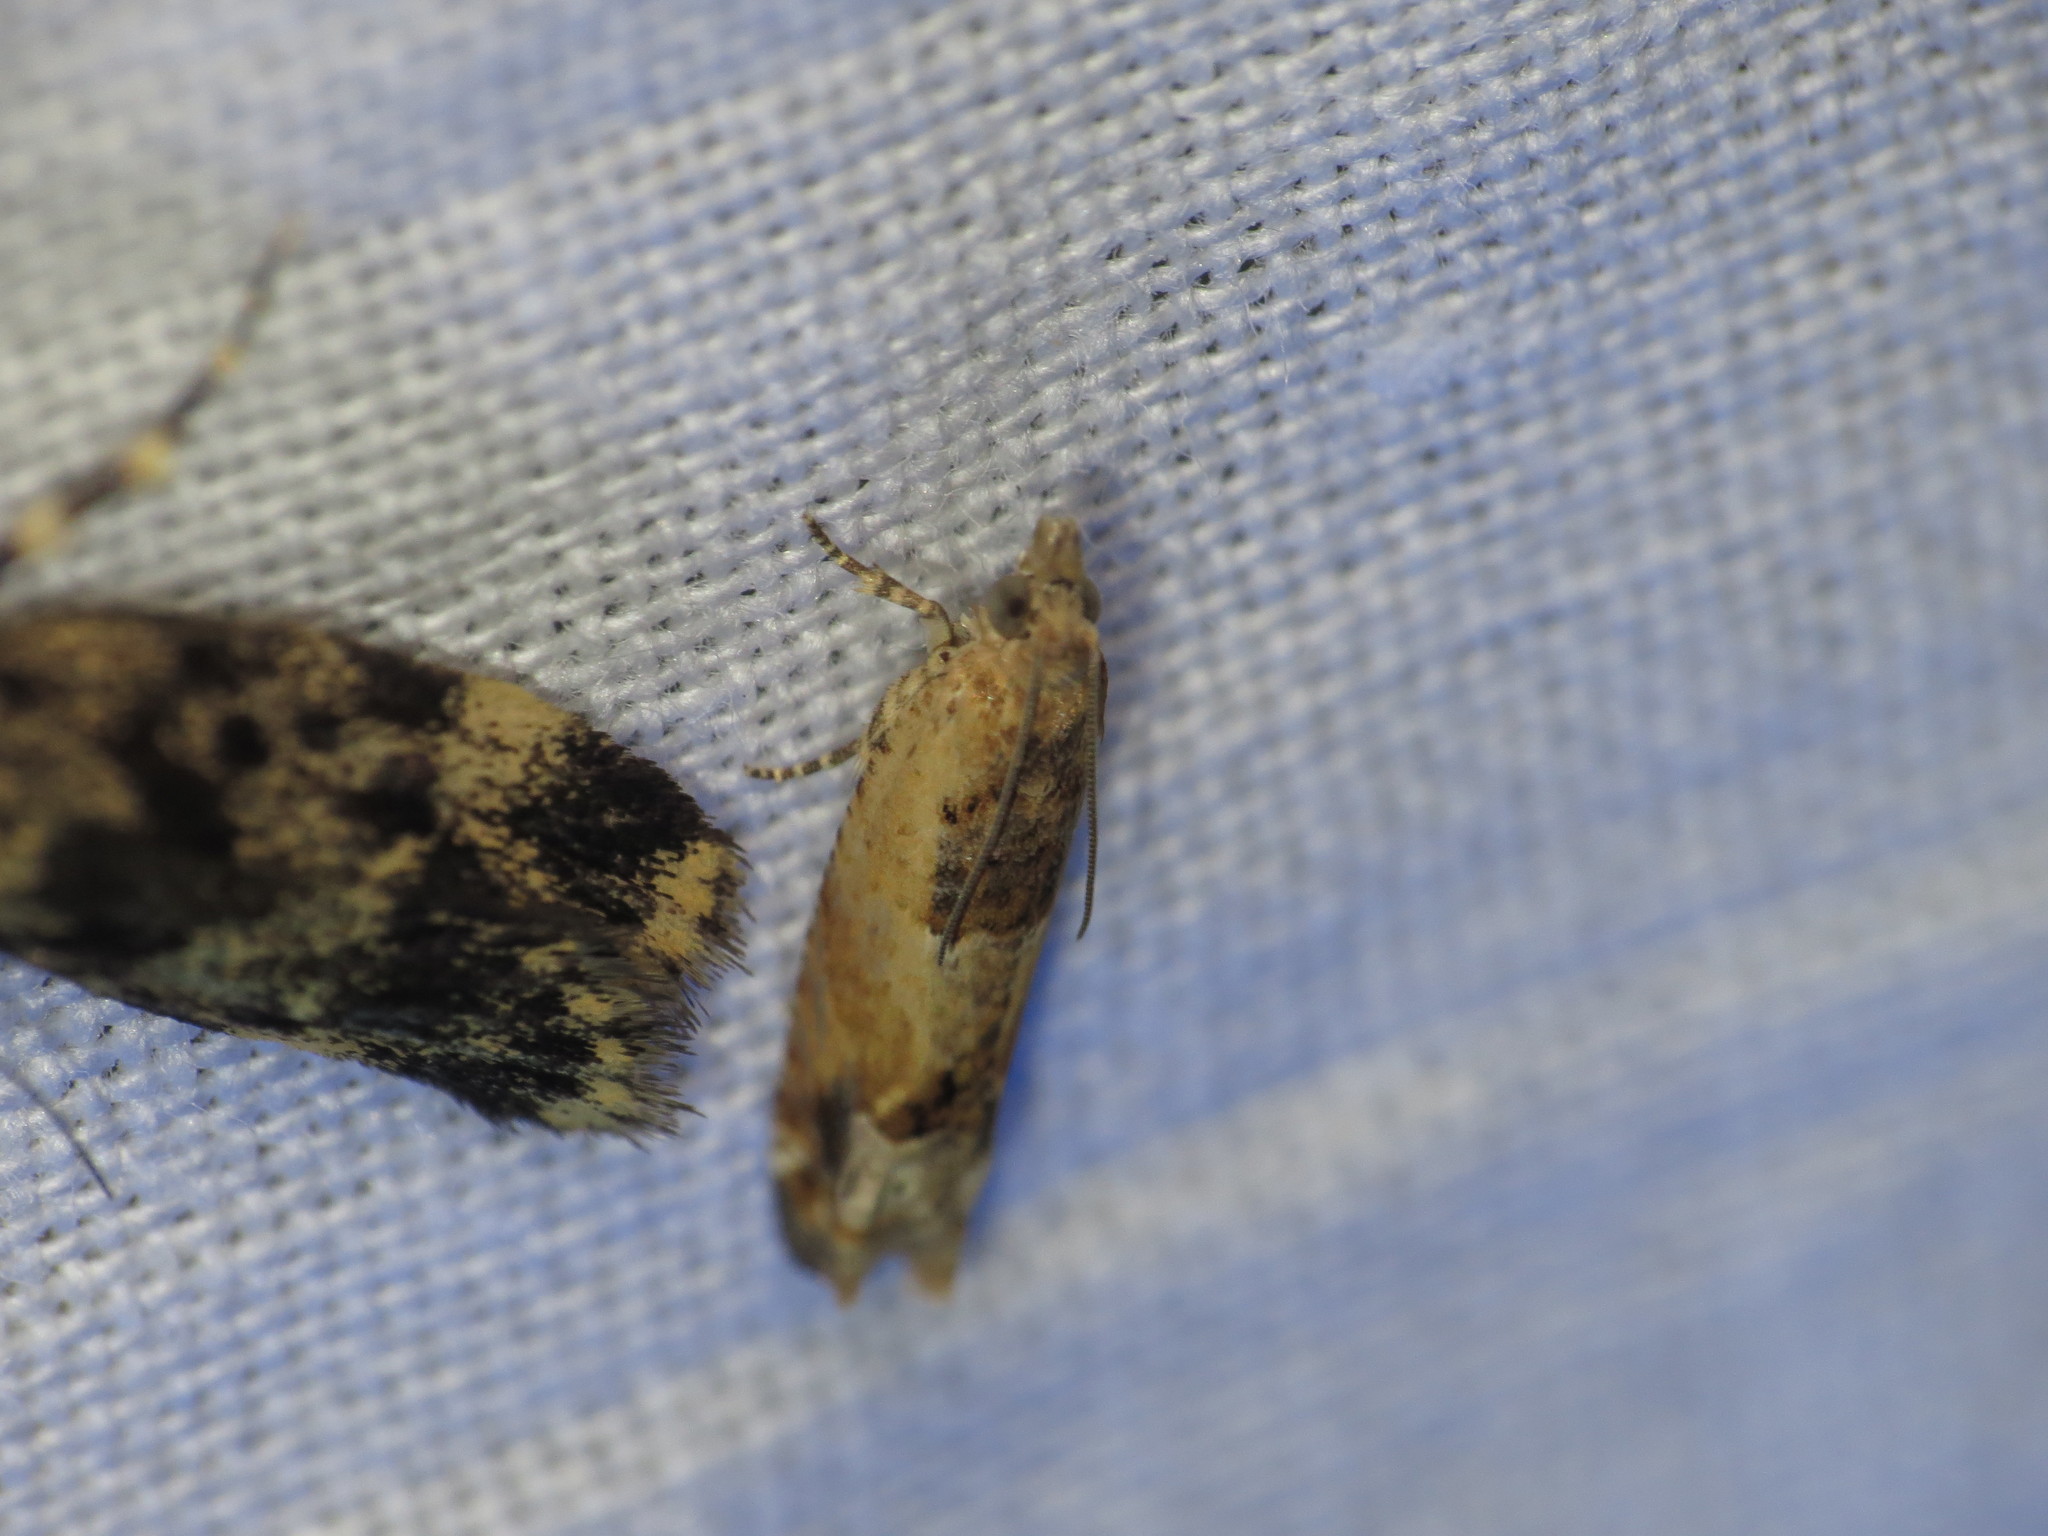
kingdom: Animalia
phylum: Arthropoda
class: Insecta
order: Lepidoptera
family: Tortricidae
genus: Crocidosema
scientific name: Crocidosema plebejana
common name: Southern bell
